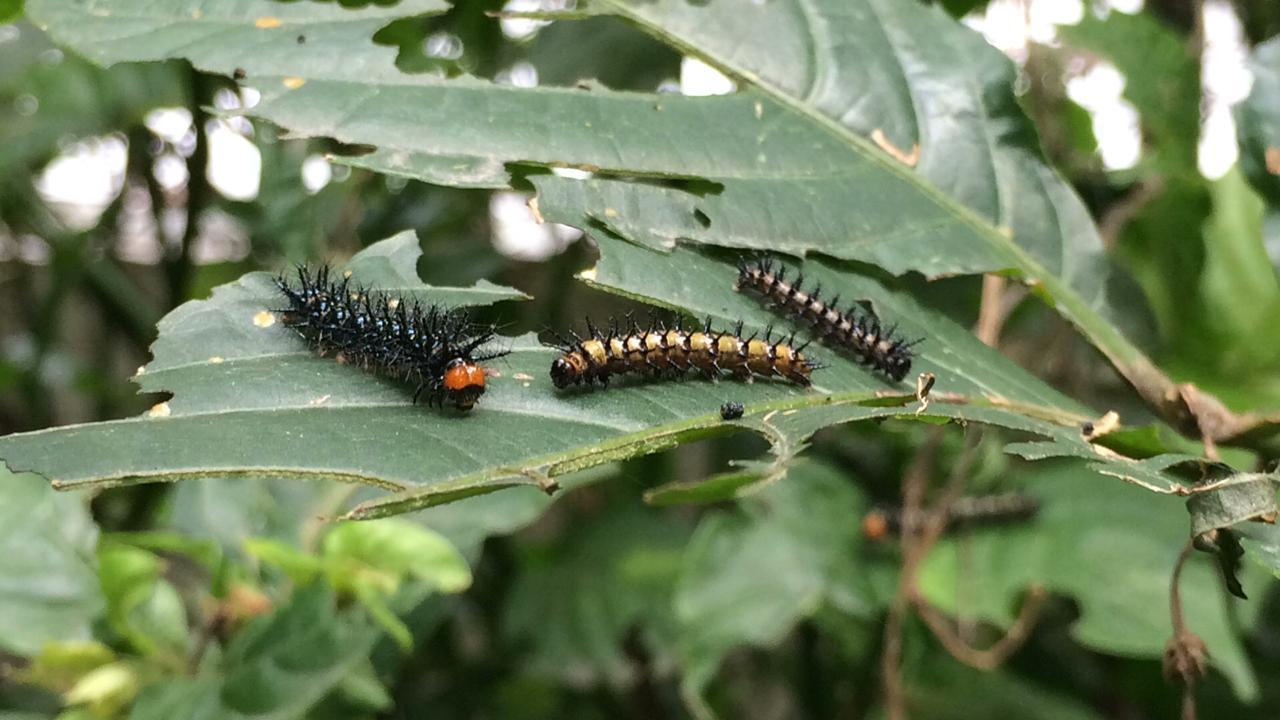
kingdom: Animalia
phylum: Arthropoda
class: Insecta
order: Lepidoptera
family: Nymphalidae
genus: Chlosyne
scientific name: Chlosyne janais
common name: Crimson patch
